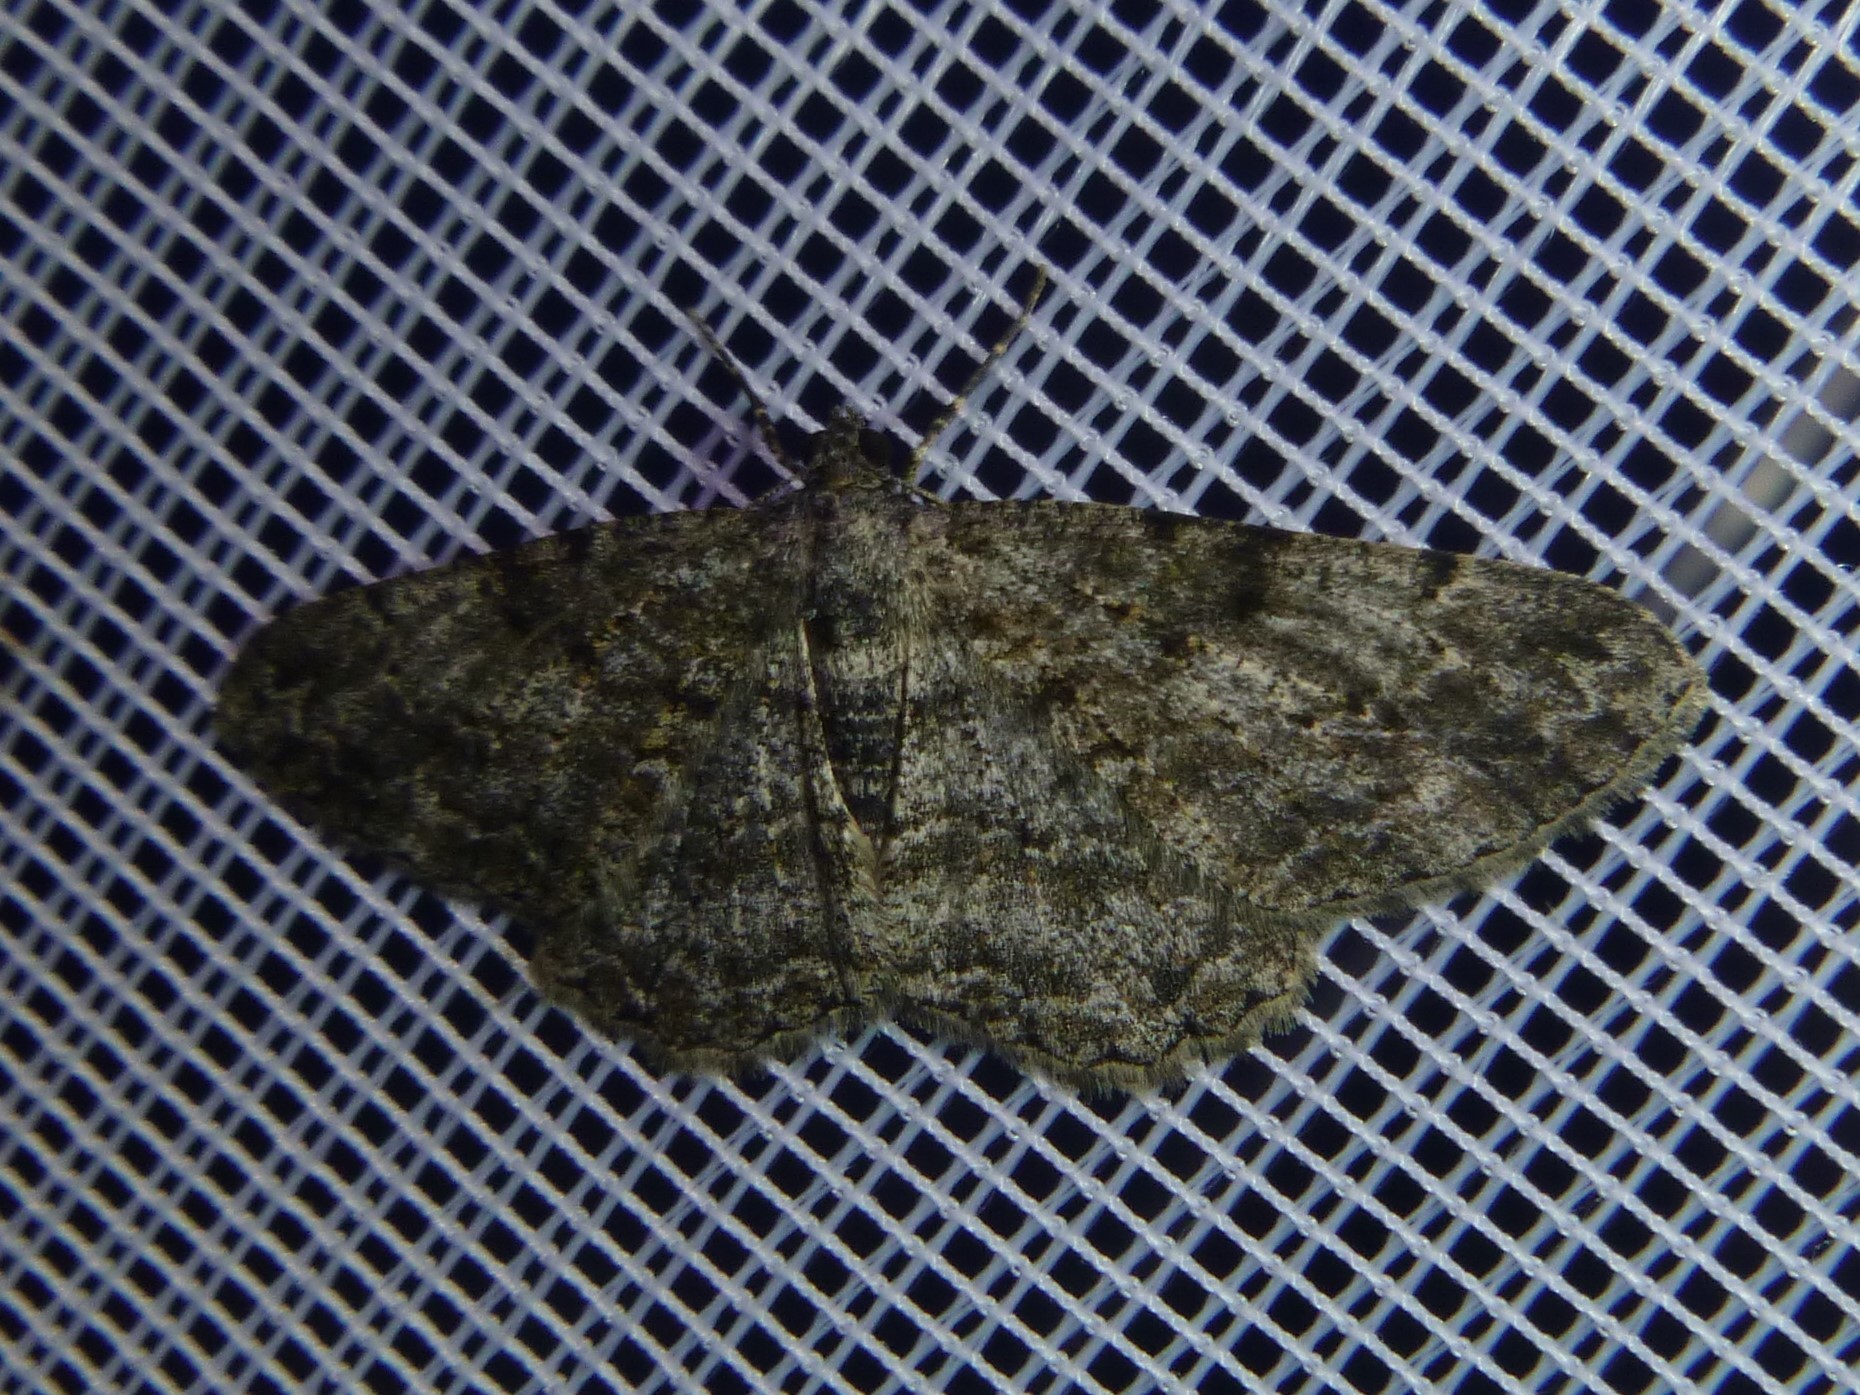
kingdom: Animalia
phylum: Arthropoda
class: Insecta
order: Lepidoptera
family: Geometridae
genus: Peribatodes
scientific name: Peribatodes rhomboidaria
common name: Willow beauty
